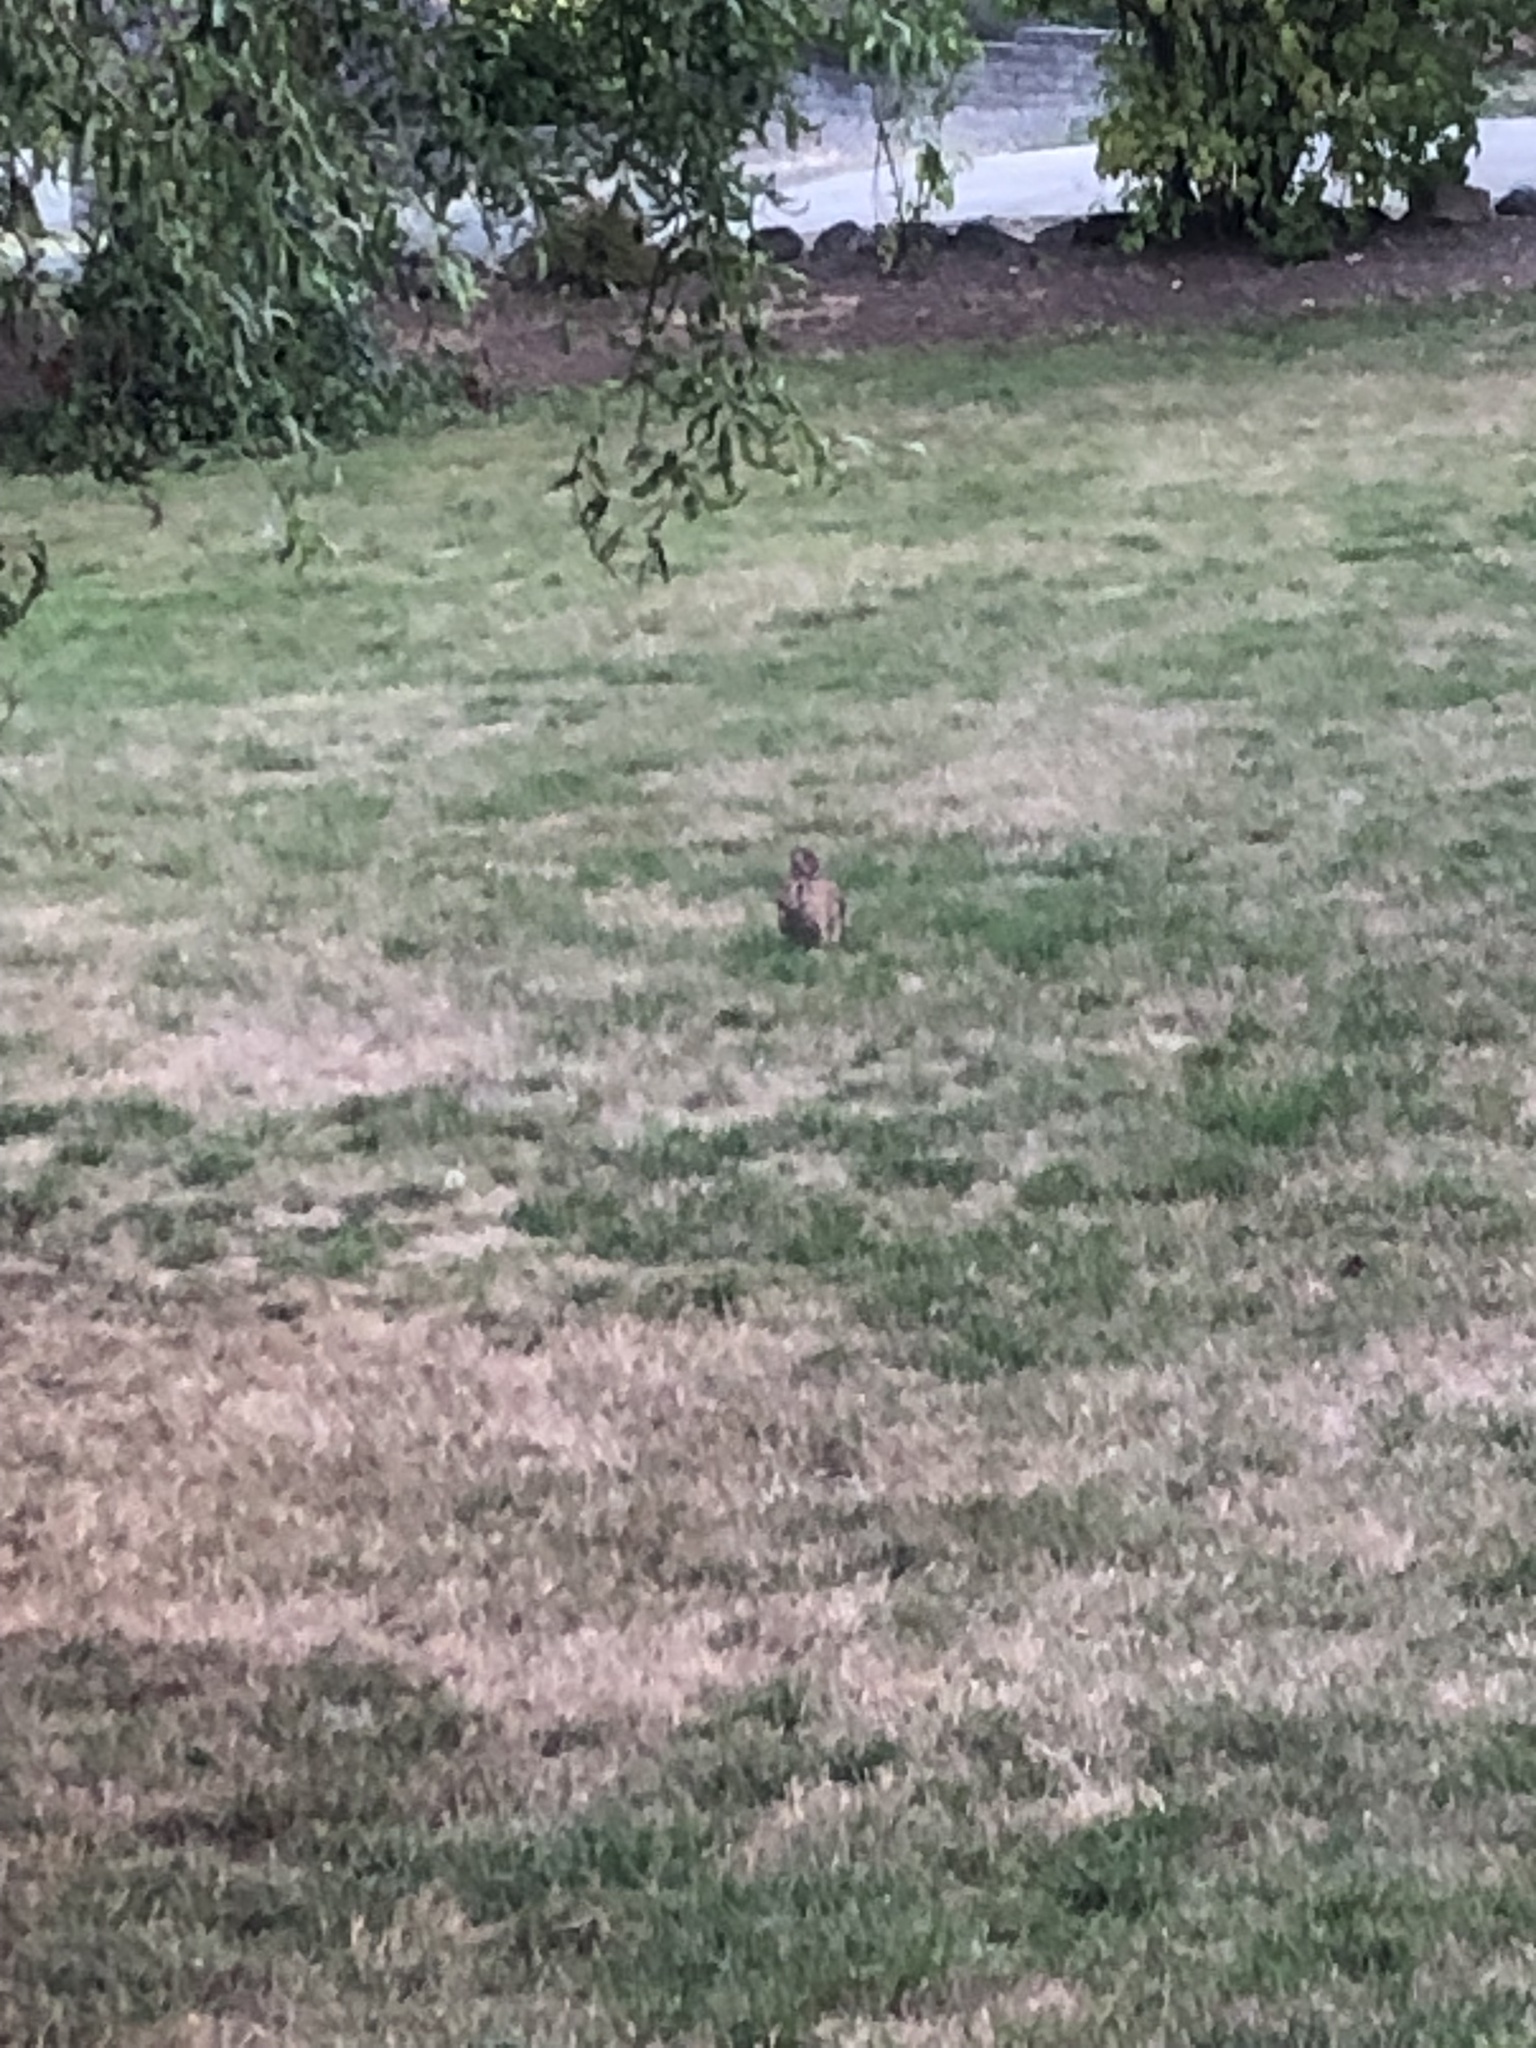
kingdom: Animalia
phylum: Chordata
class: Mammalia
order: Lagomorpha
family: Leporidae
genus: Sylvilagus
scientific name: Sylvilagus floridanus
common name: Eastern cottontail
